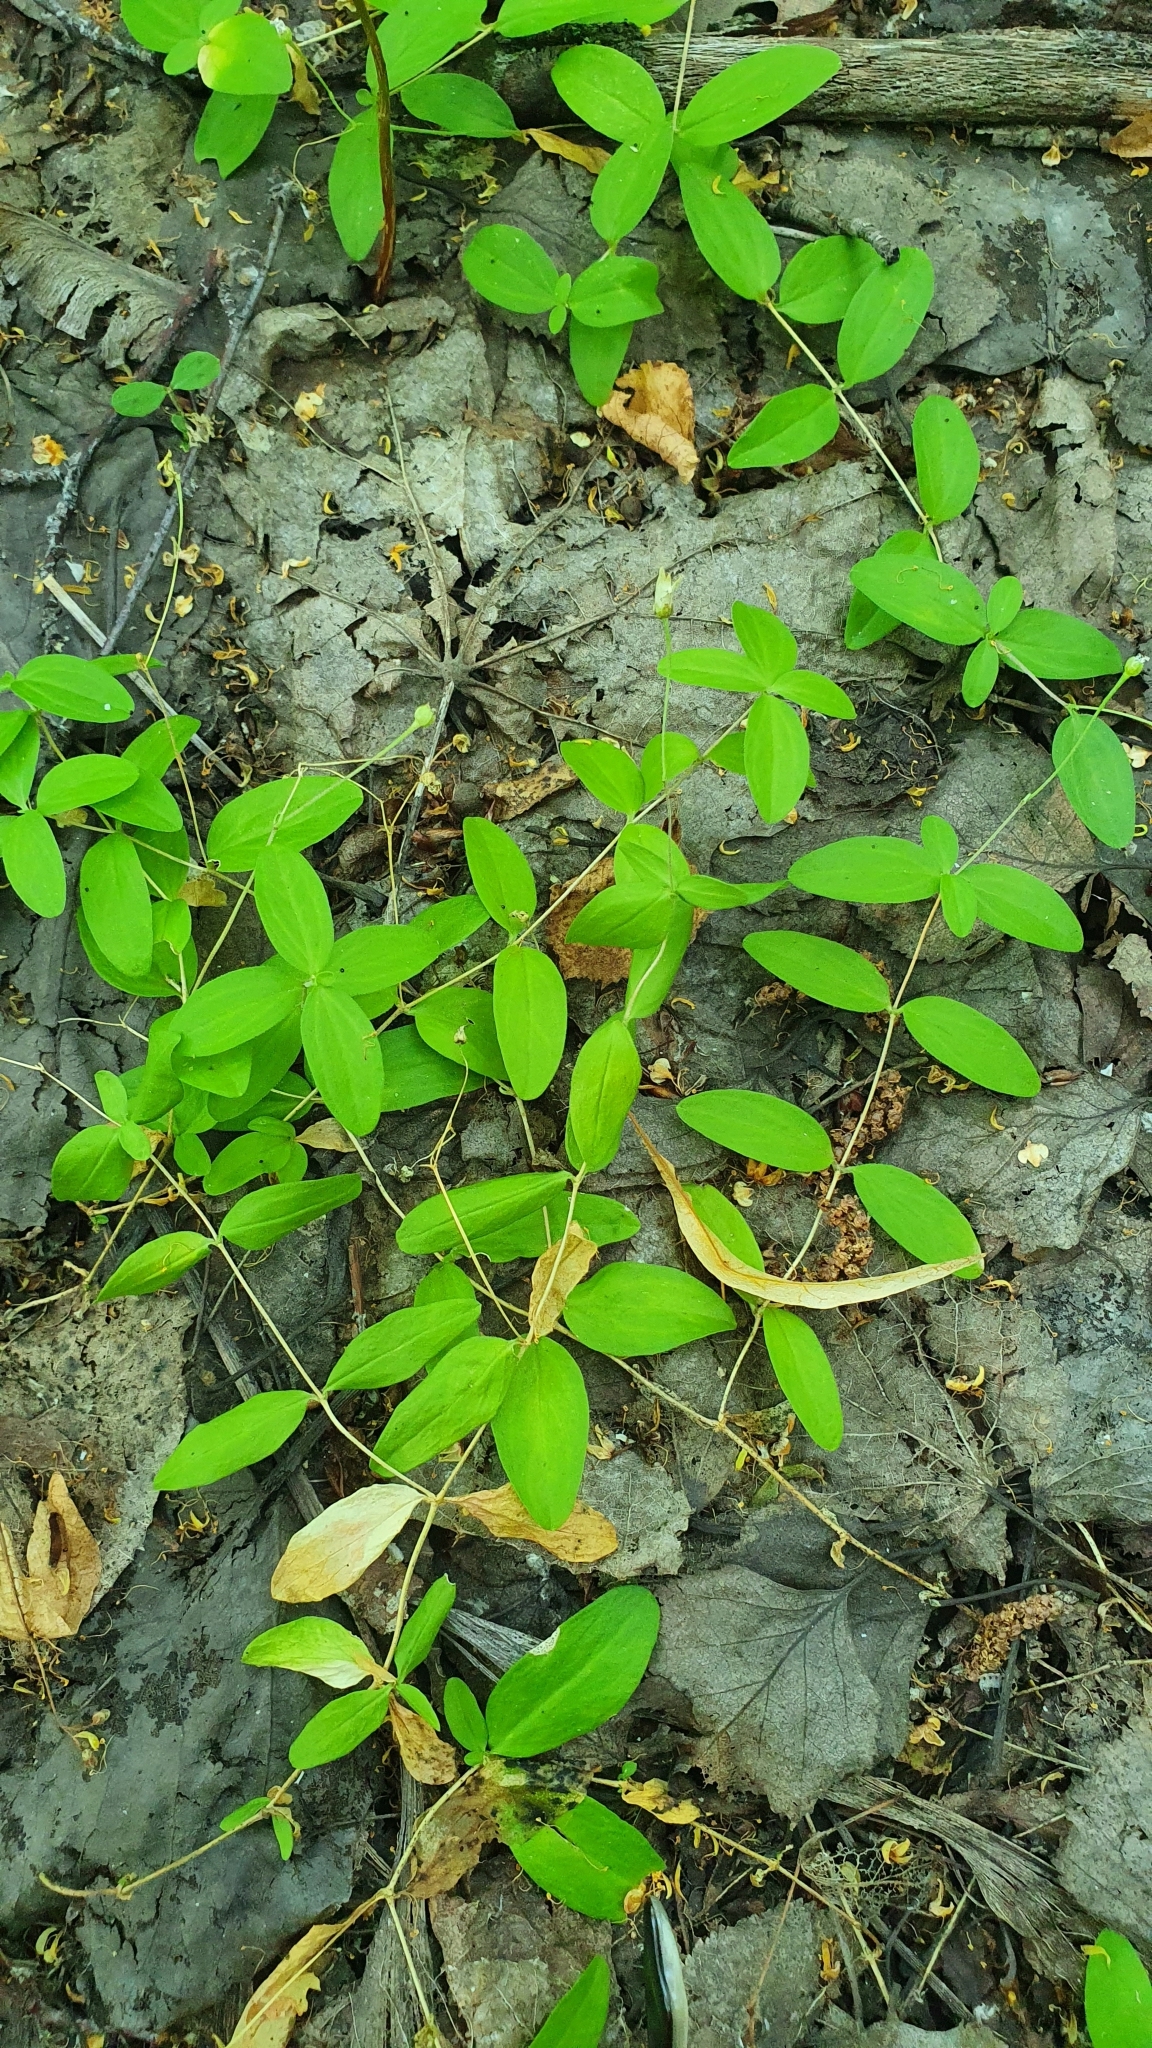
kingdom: Plantae
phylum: Tracheophyta
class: Magnoliopsida
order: Caryophyllales
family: Caryophyllaceae
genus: Moehringia
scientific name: Moehringia lateriflora
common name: Blunt-leaved sandwort
